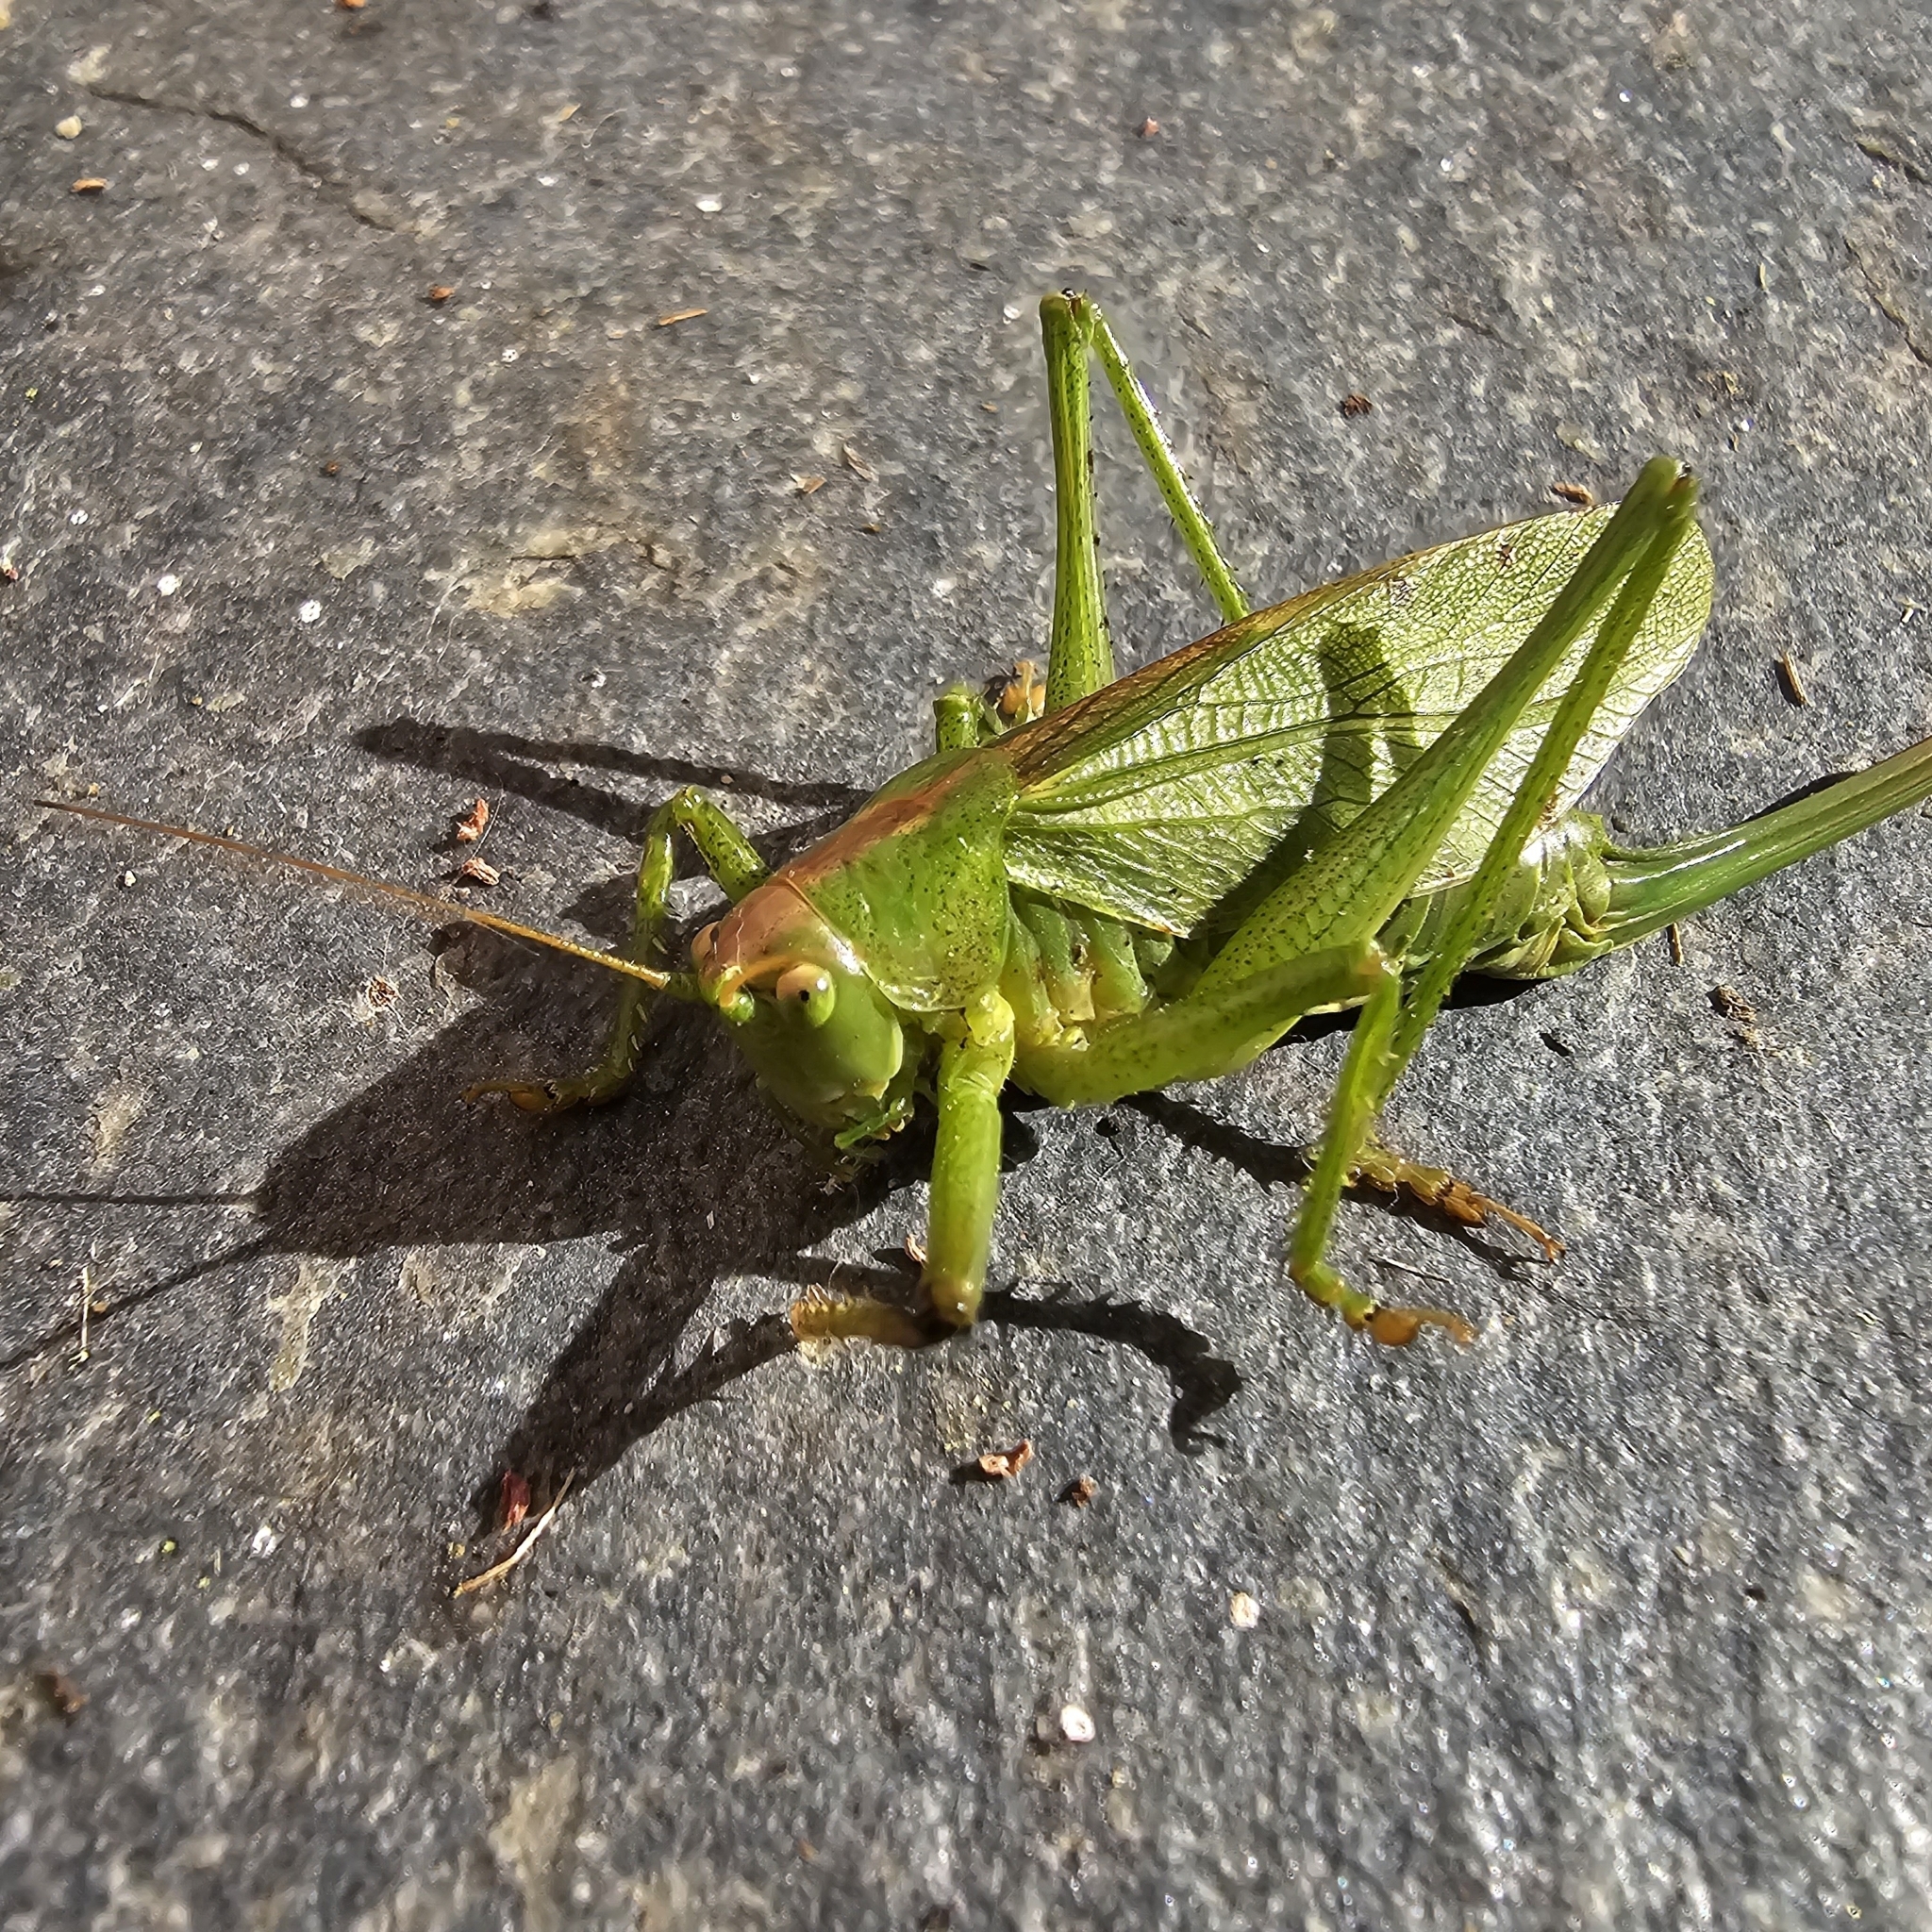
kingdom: Animalia
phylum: Arthropoda
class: Insecta
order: Orthoptera
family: Tettigoniidae
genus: Tettigonia
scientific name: Tettigonia cantans
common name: Upland green bush-cricket
